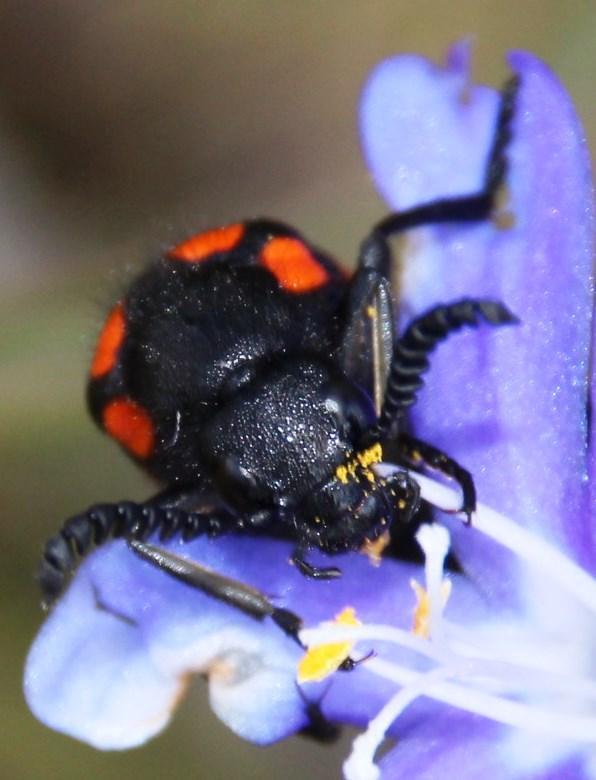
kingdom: Animalia
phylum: Arthropoda
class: Insecta
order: Coleoptera
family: Meloidae
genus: Ceroctis
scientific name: Ceroctis gyllenhalli
